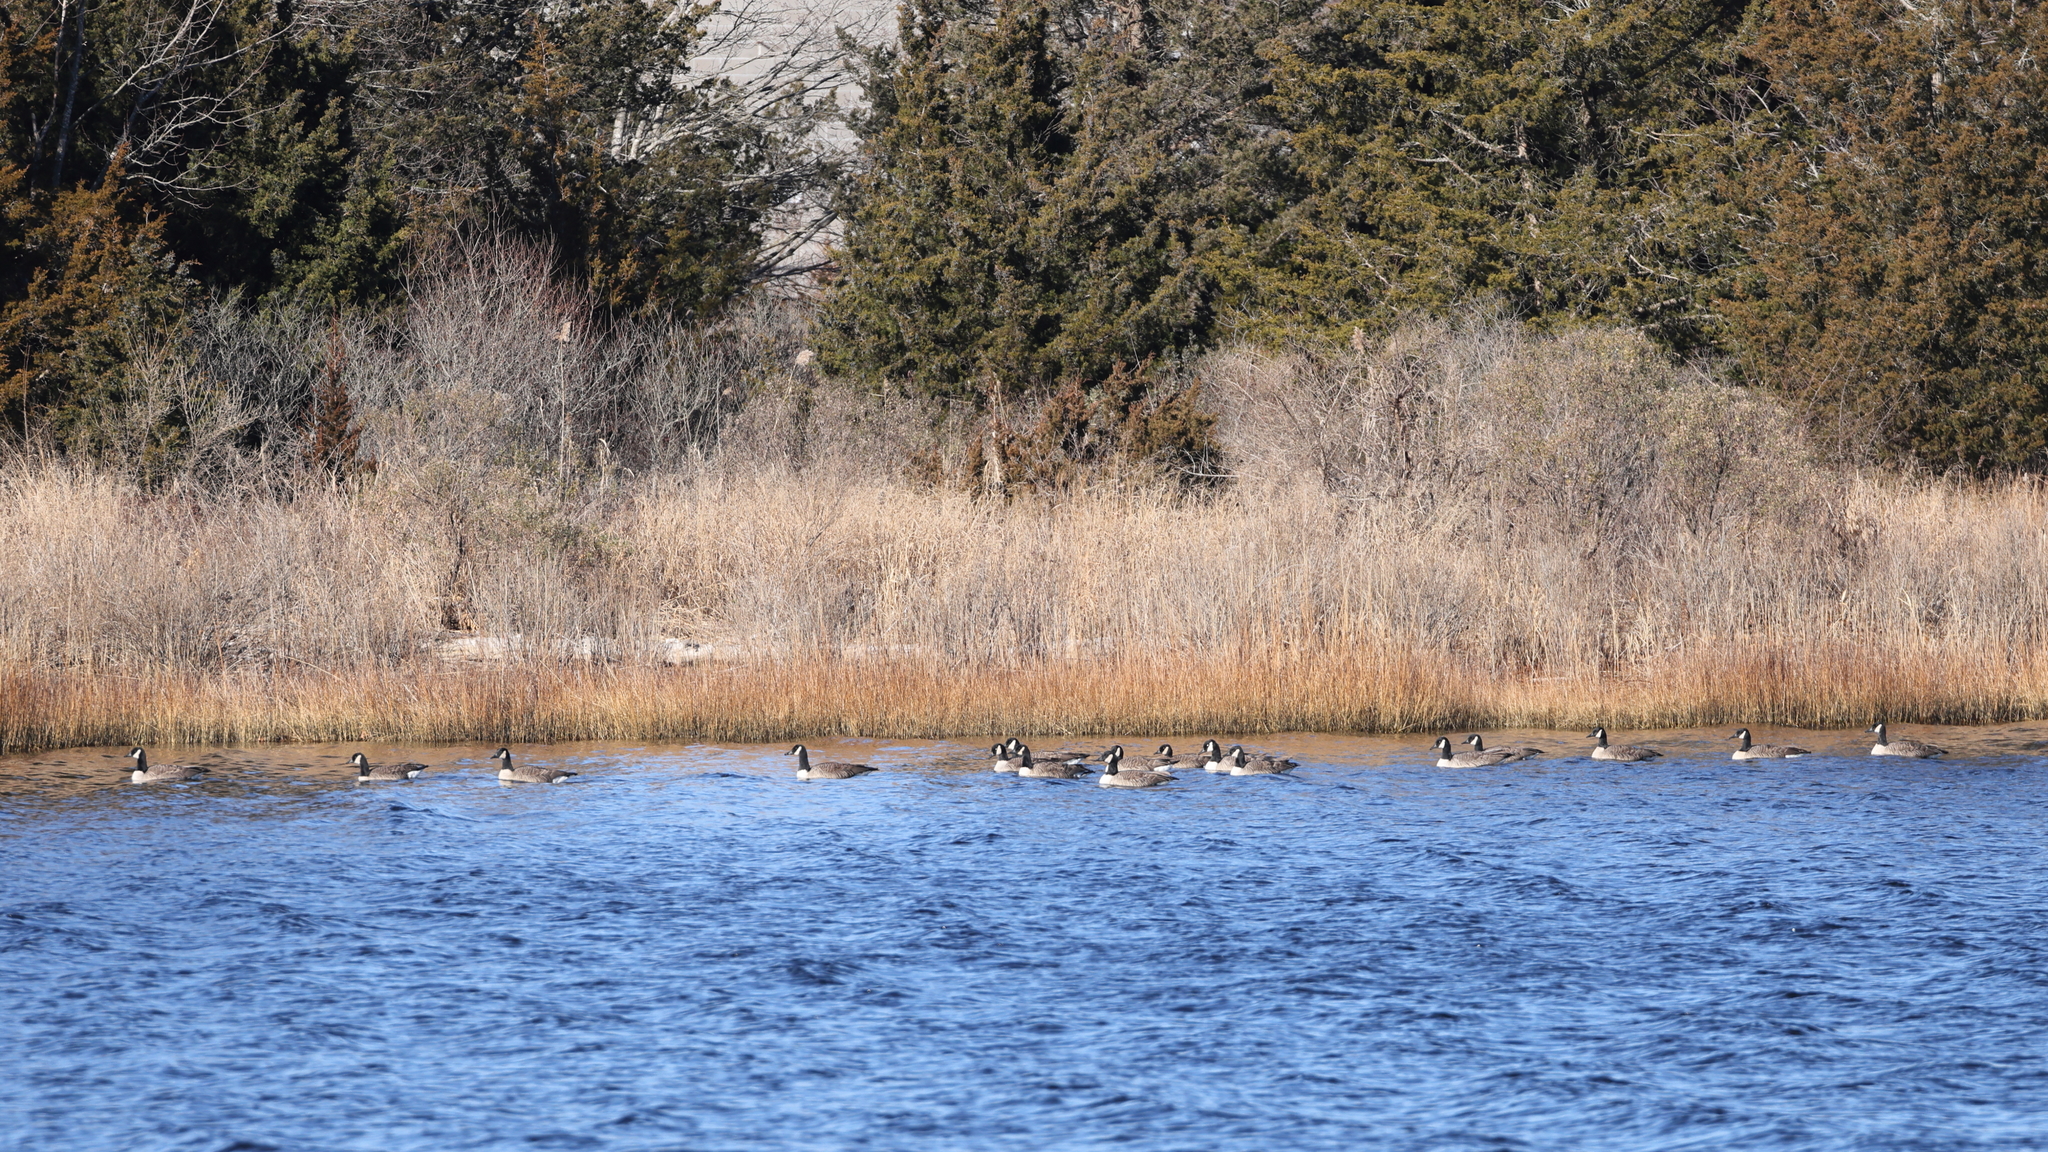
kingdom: Animalia
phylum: Chordata
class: Aves
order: Anseriformes
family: Anatidae
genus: Branta
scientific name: Branta canadensis
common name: Canada goose
